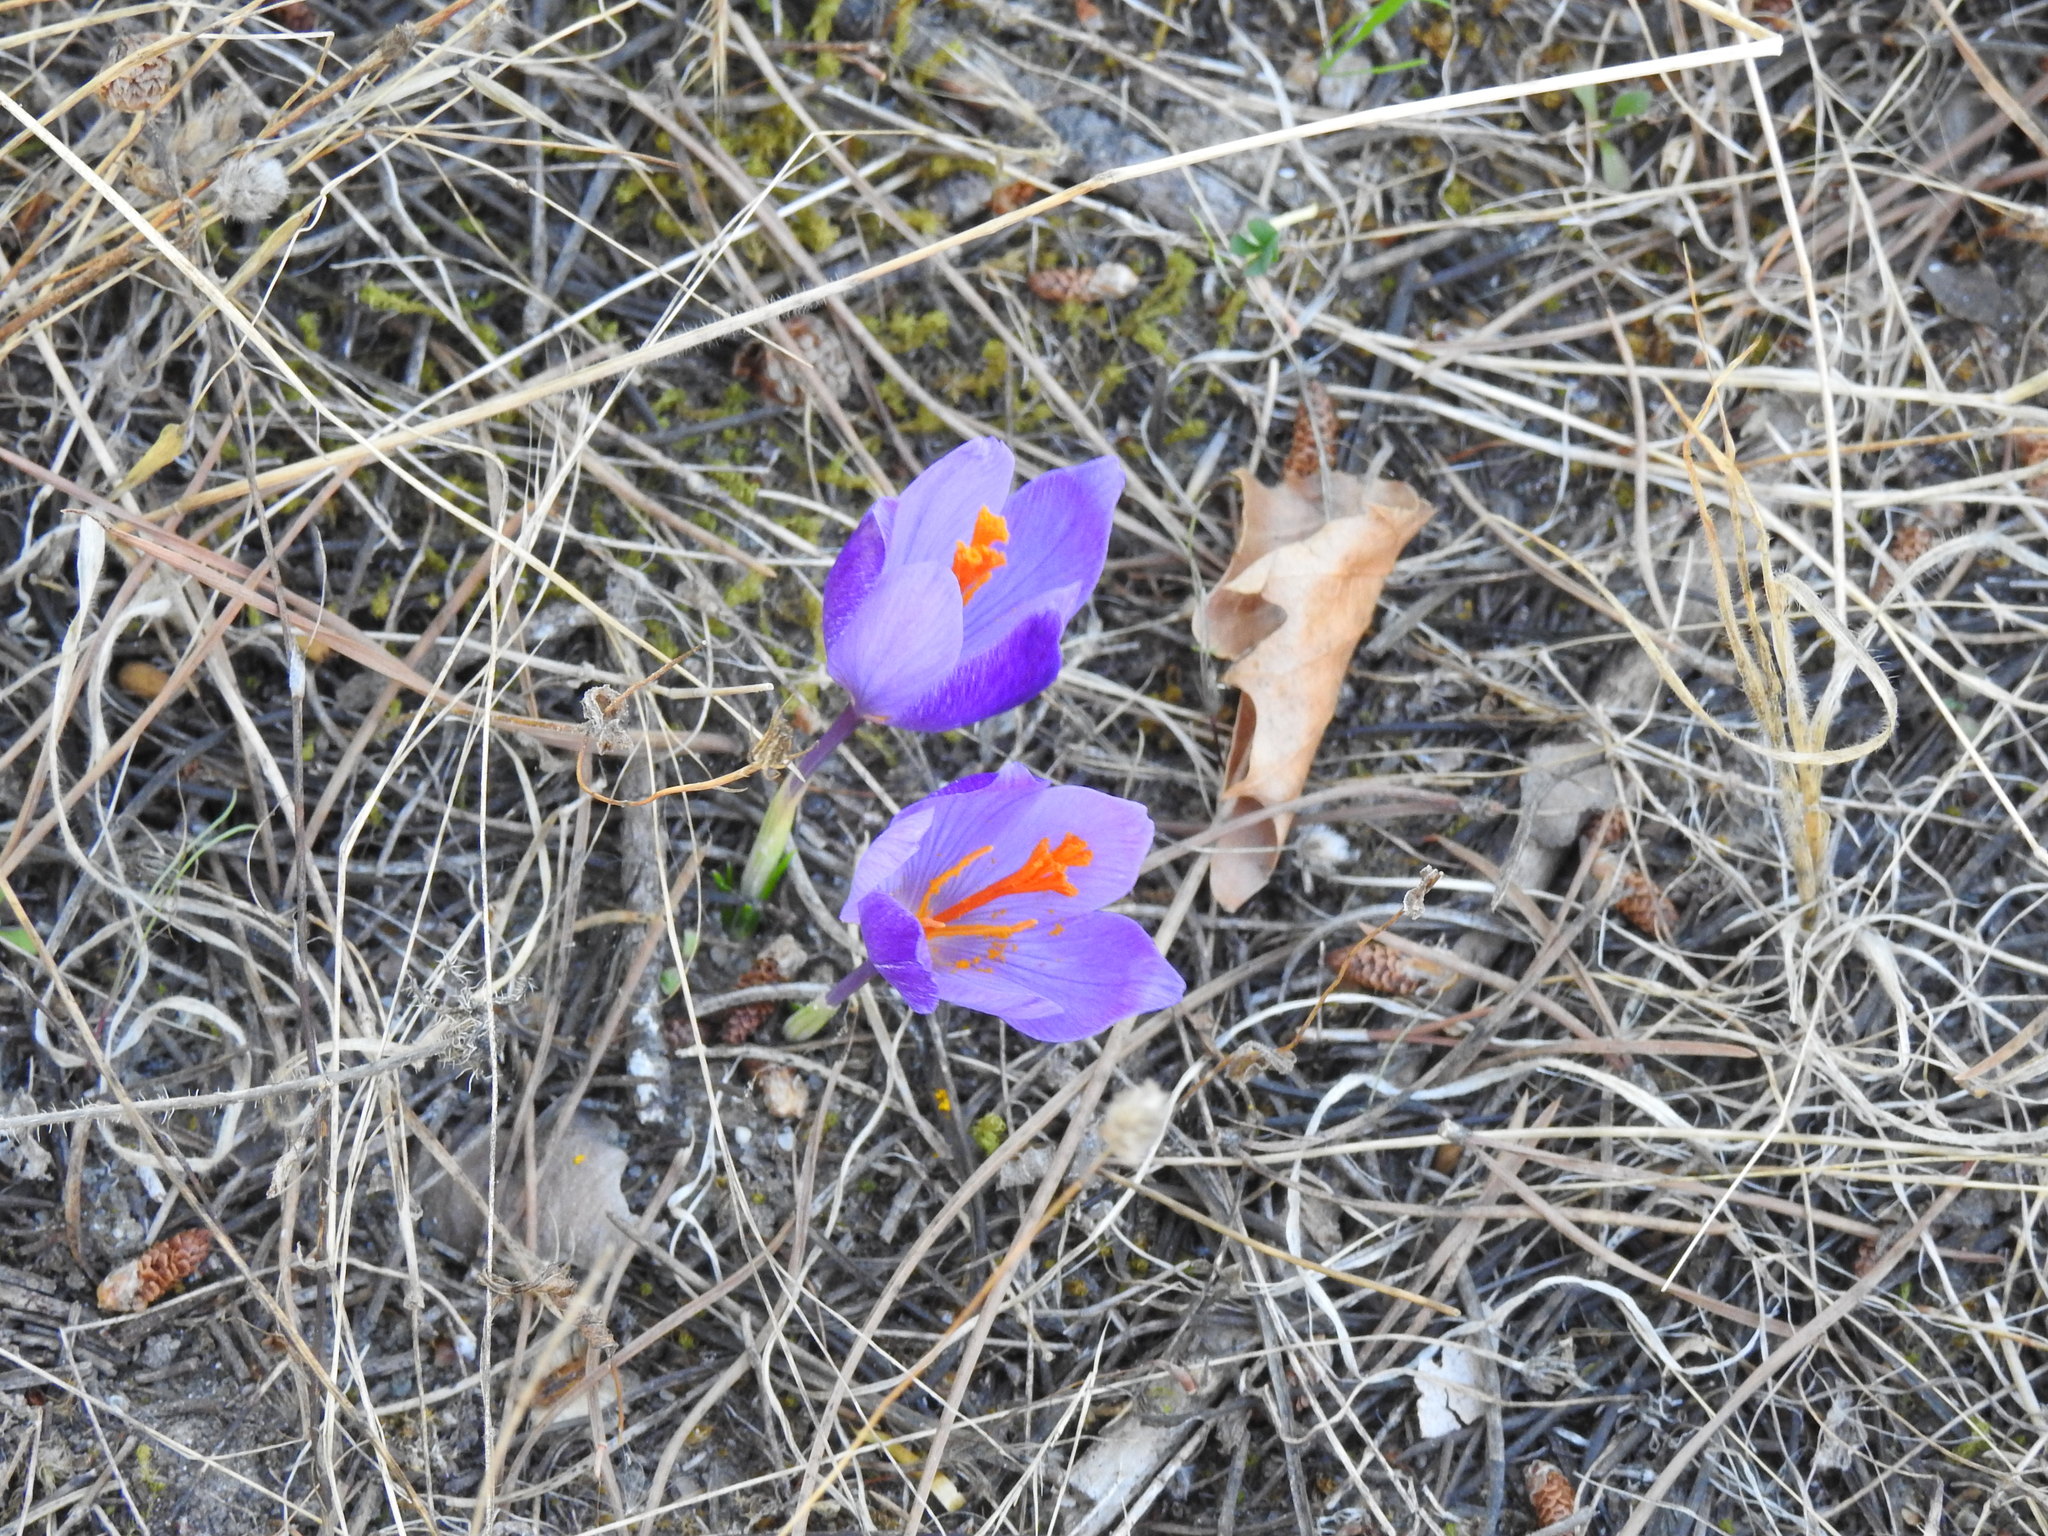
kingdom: Plantae
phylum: Tracheophyta
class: Liliopsida
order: Asparagales
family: Iridaceae
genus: Crocus
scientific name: Crocus serotinus
